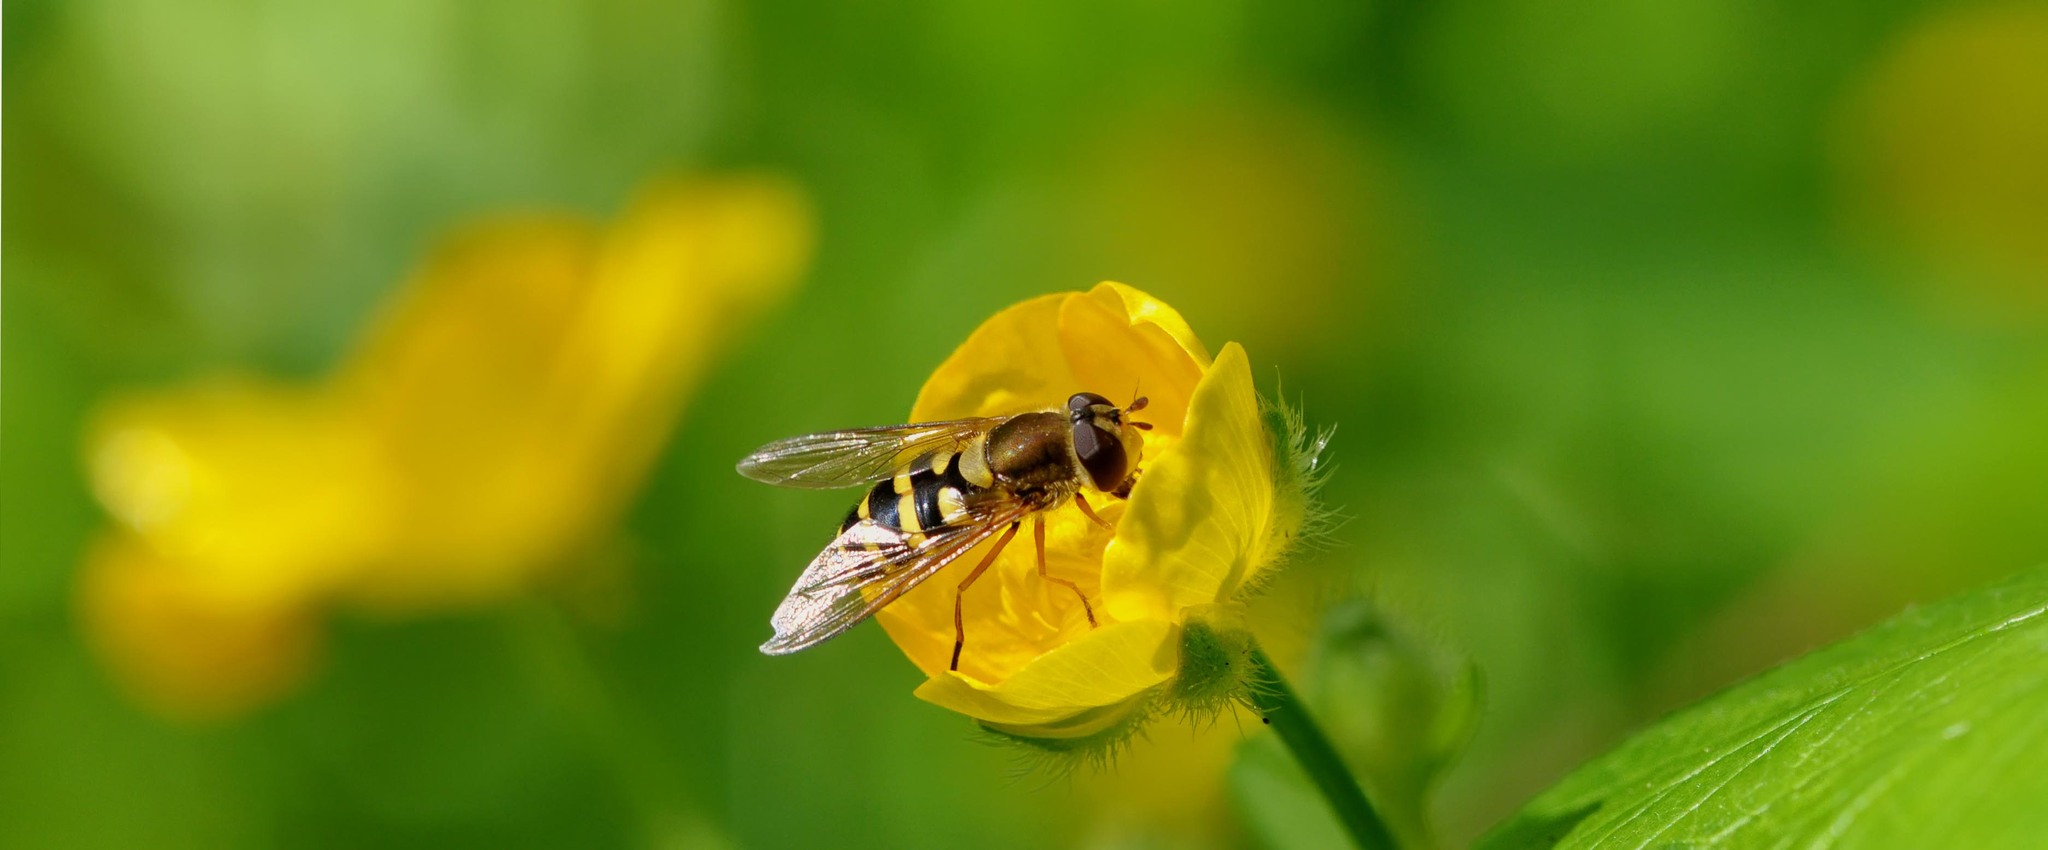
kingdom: Animalia
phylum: Arthropoda
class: Insecta
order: Diptera
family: Syrphidae
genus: Syrphus
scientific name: Syrphus ribesii
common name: Common flower fly
